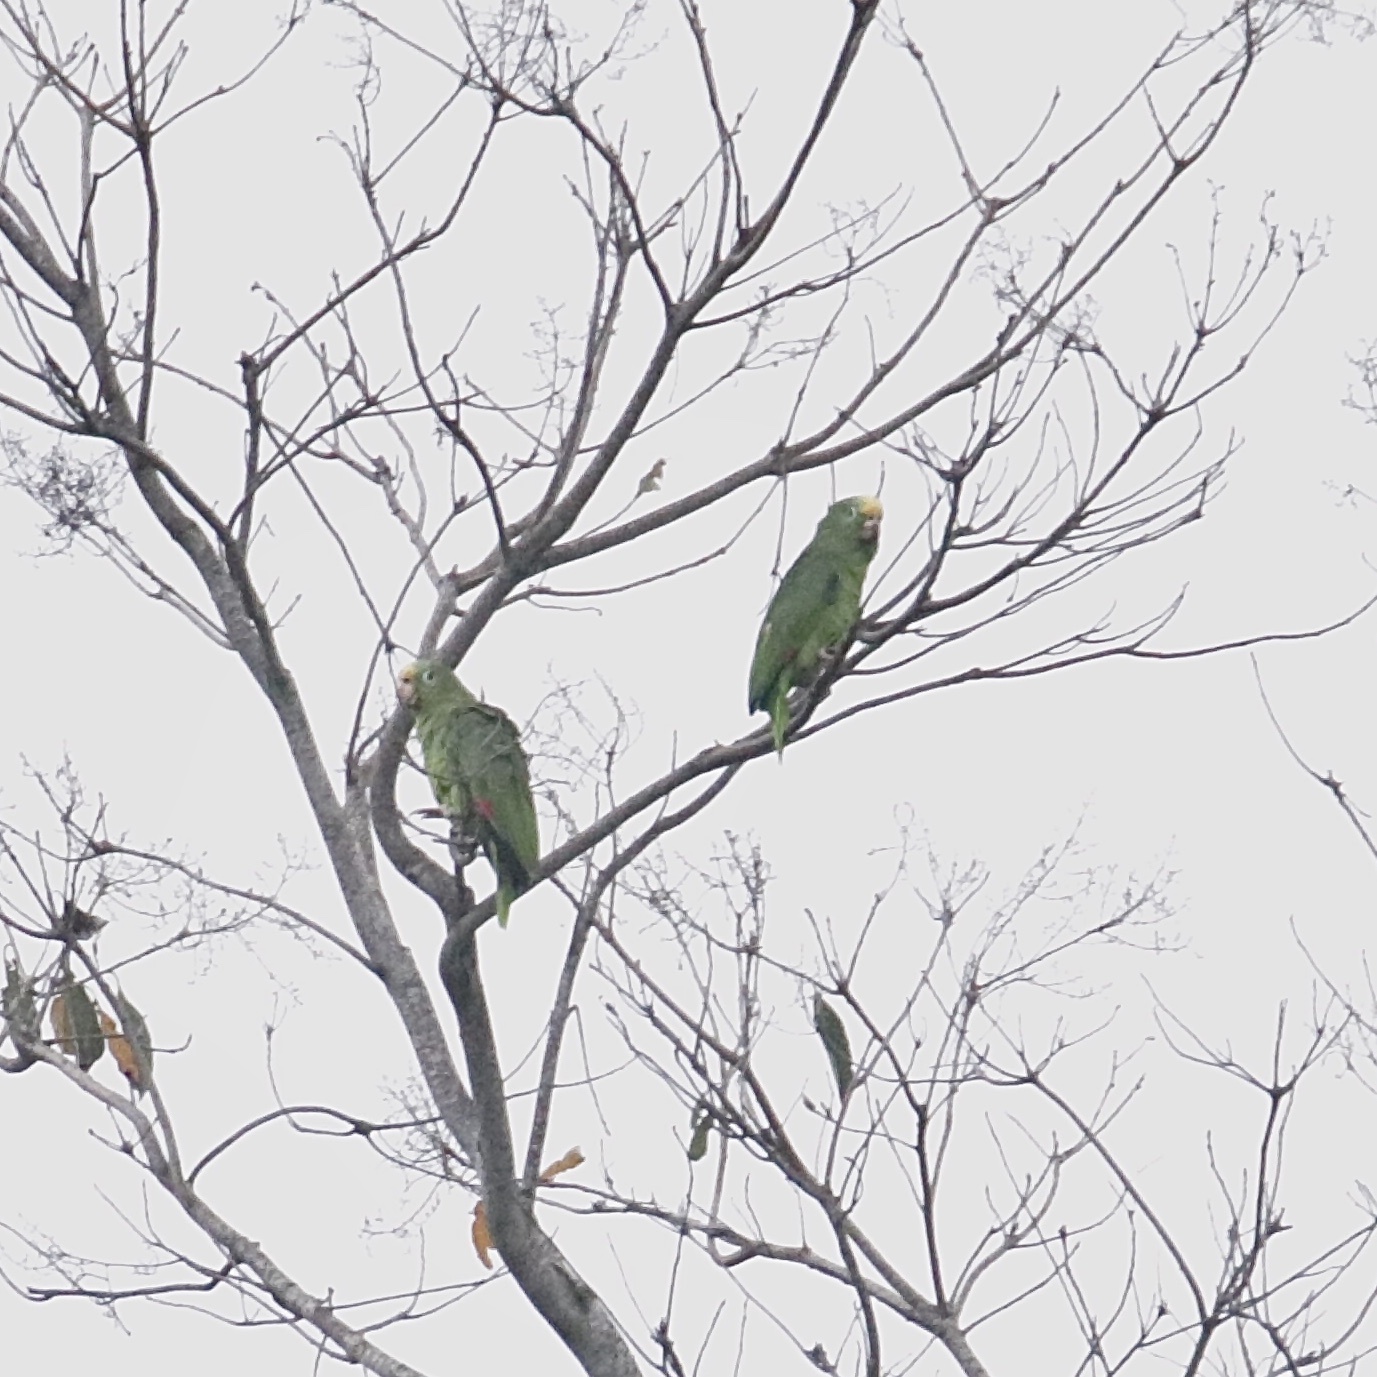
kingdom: Animalia
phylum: Chordata
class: Aves
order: Psittaciformes
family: Psittacidae
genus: Amazona
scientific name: Amazona ochrocephala
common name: Yellow-crowned amazon
